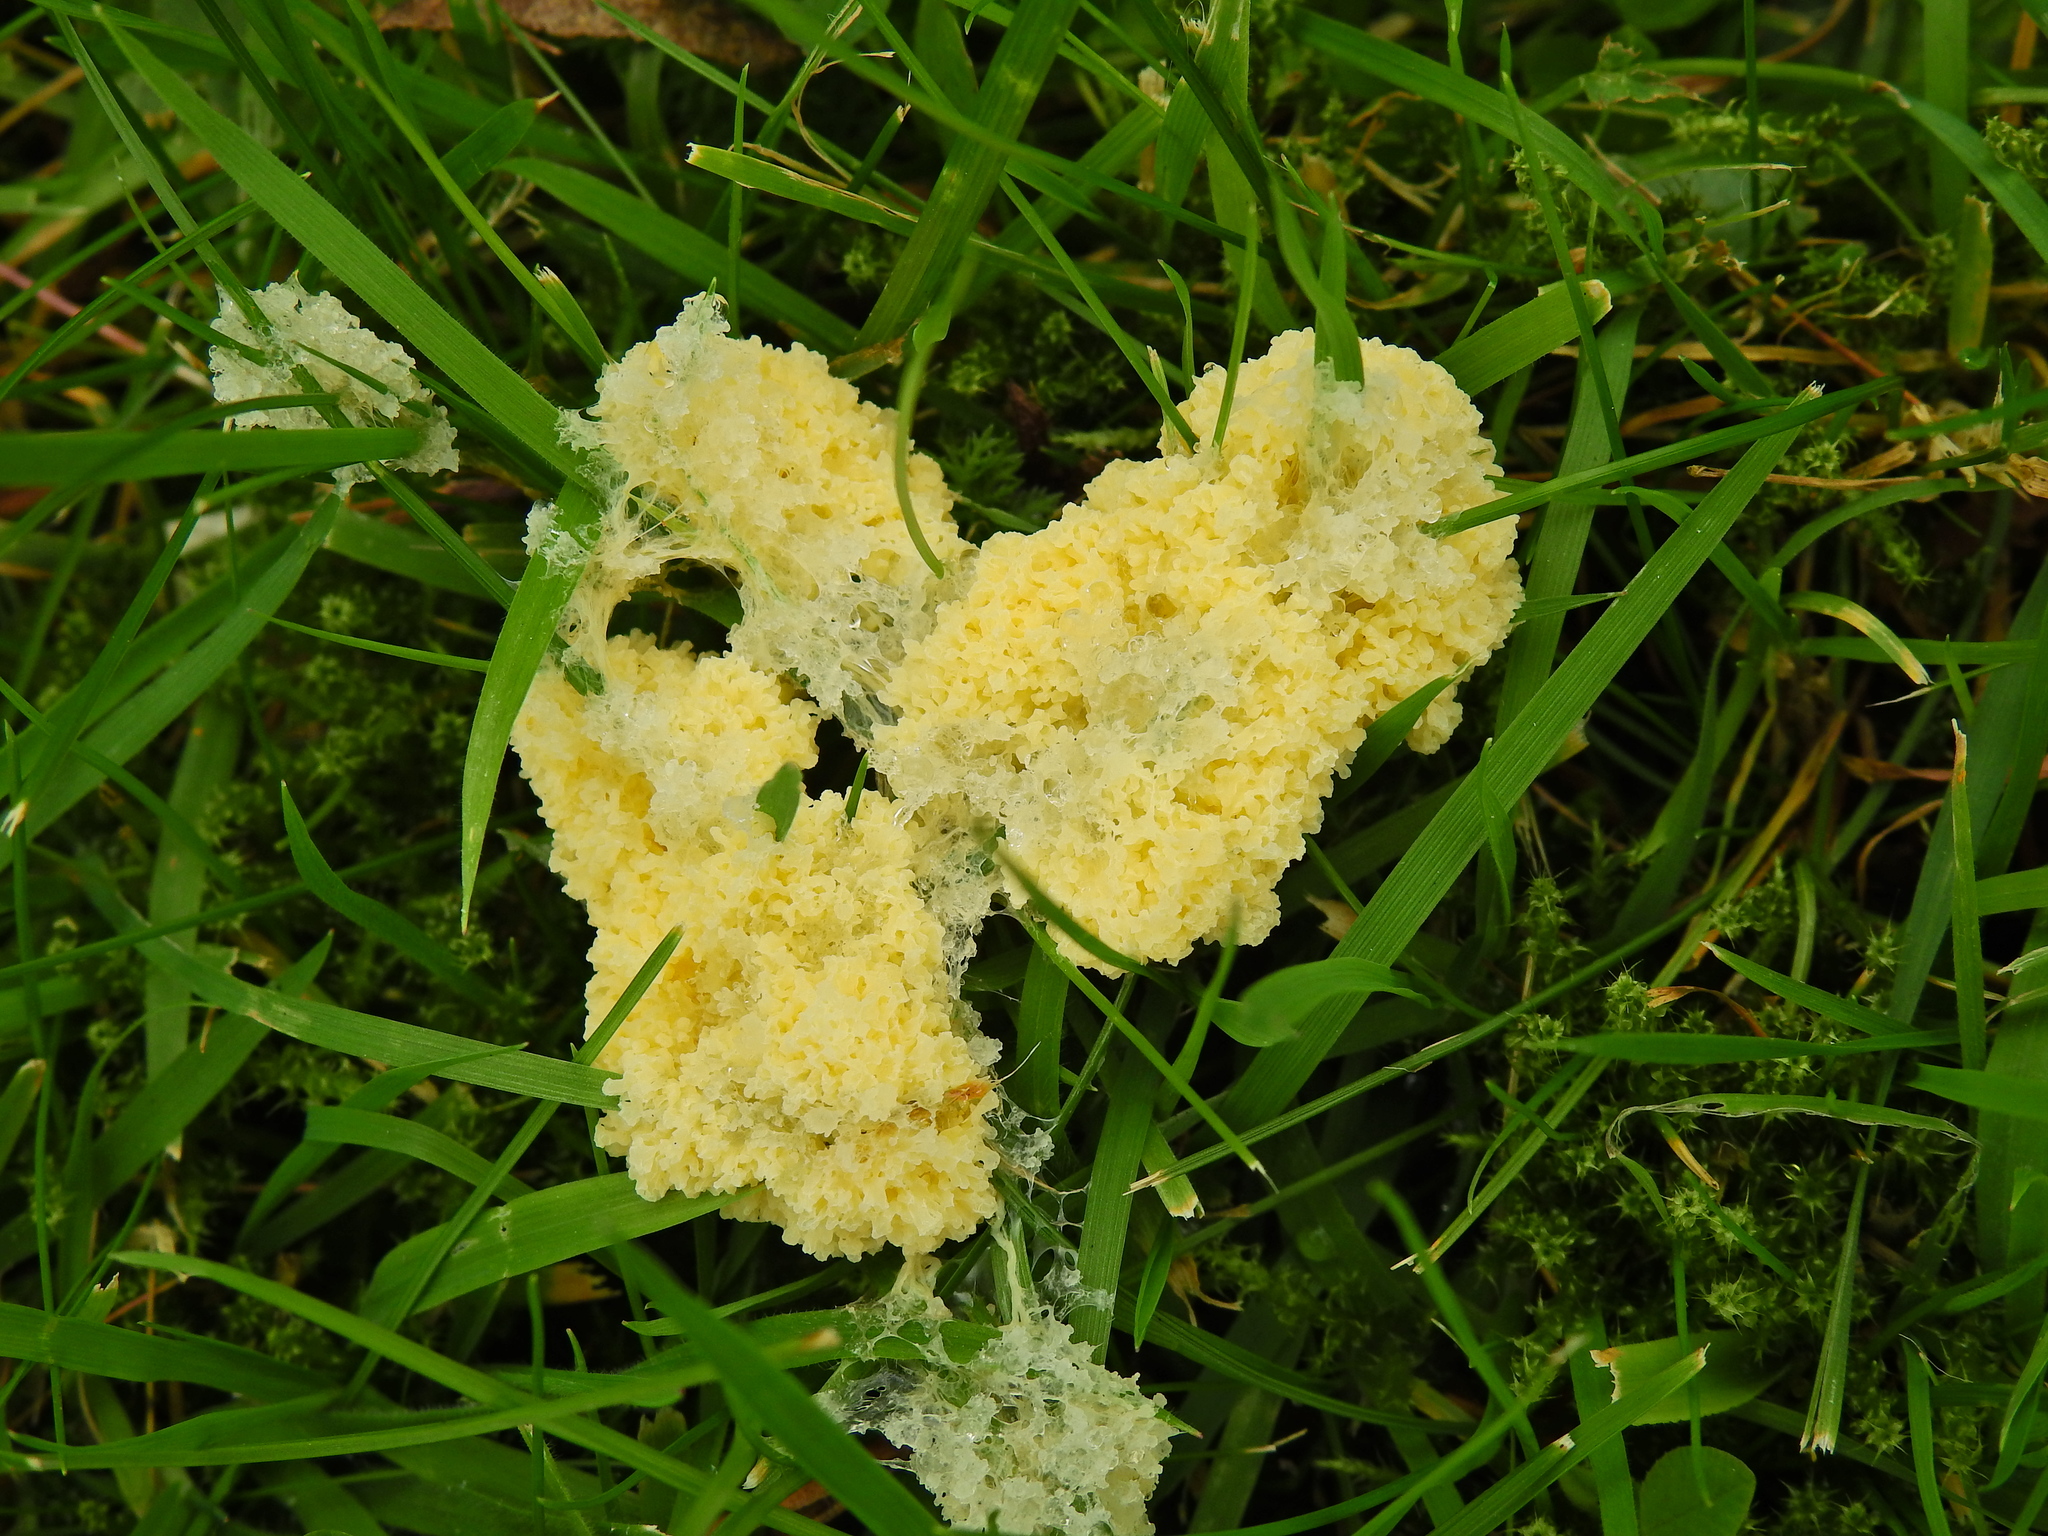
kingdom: Protozoa
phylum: Mycetozoa
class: Myxomycetes
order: Physarales
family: Physaraceae
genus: Didymium
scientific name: Didymium
